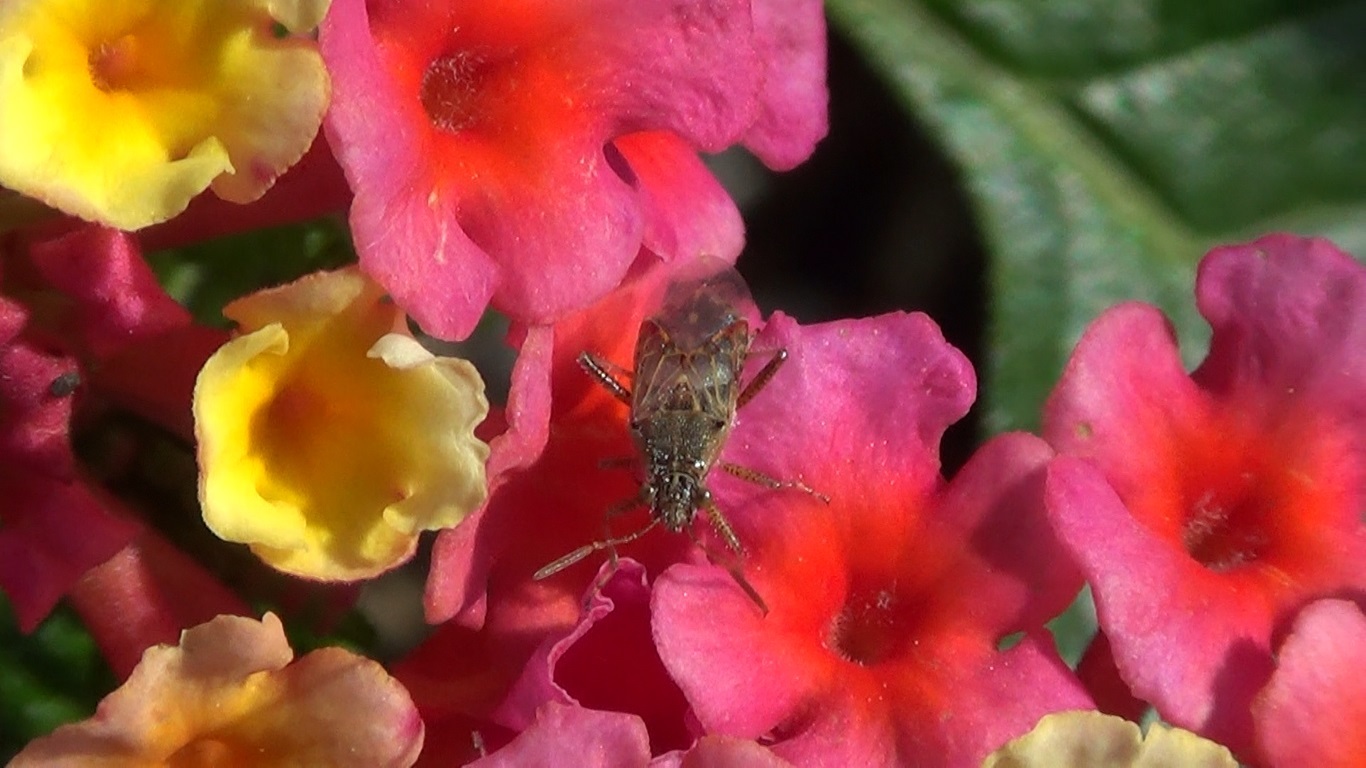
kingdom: Animalia
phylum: Arthropoda
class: Insecta
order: Hemiptera
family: Rhopalidae
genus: Liorhyssus
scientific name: Liorhyssus hyalinus
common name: Scentless plant bug
